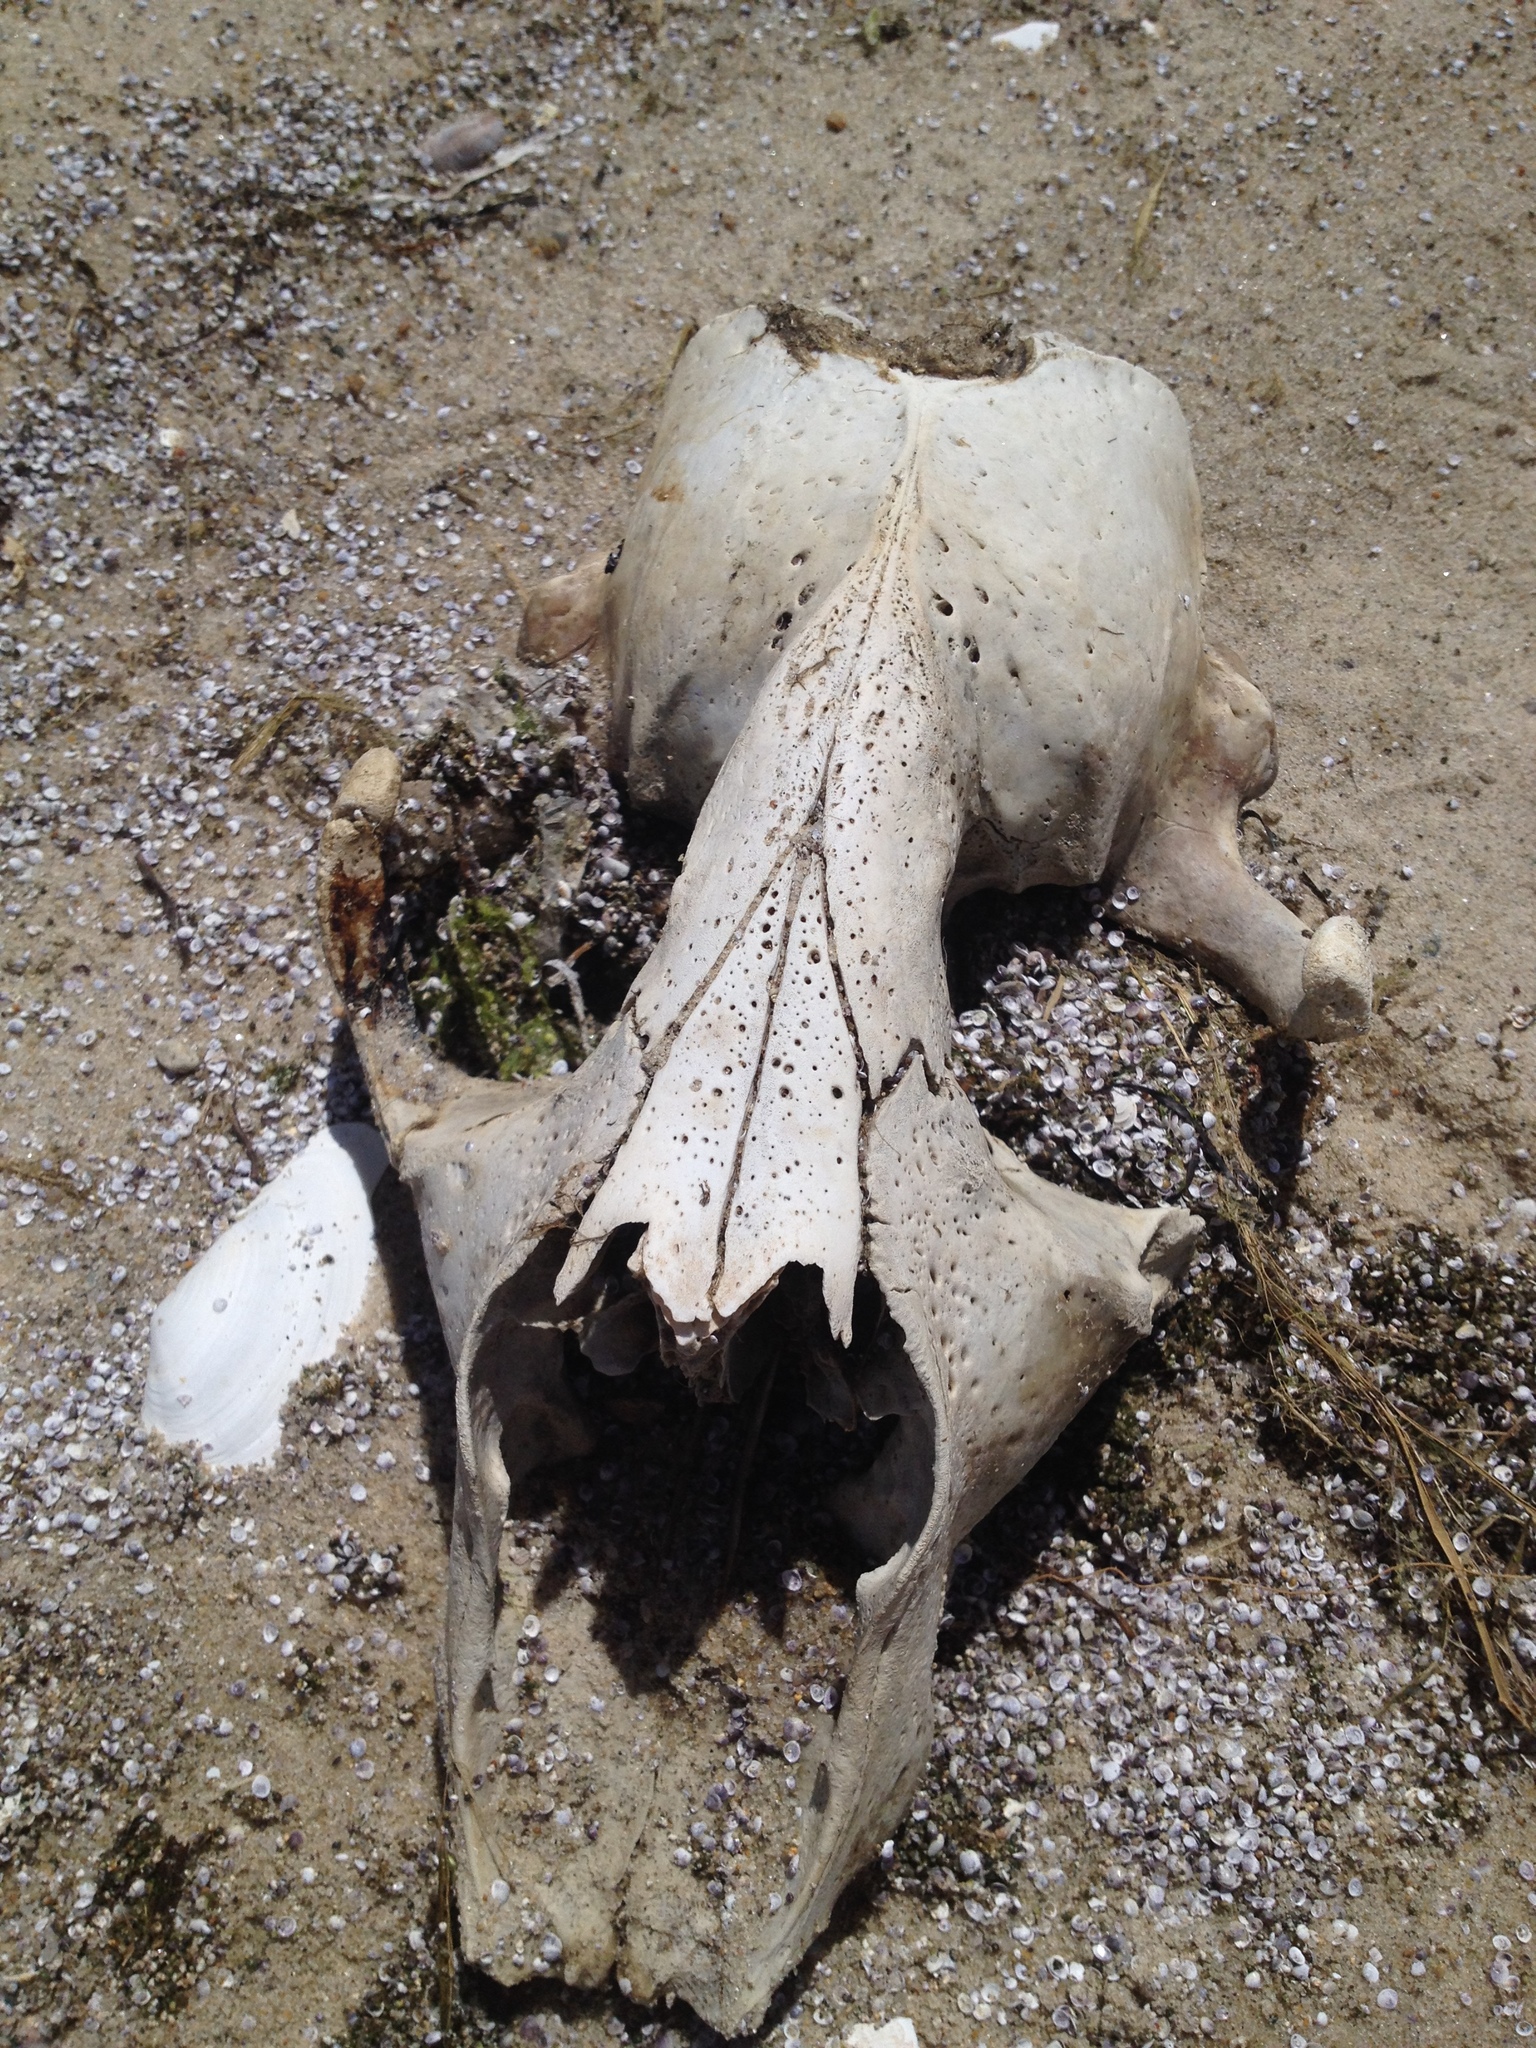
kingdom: Animalia
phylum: Chordata
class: Mammalia
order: Carnivora
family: Phocidae
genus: Halichoerus
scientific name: Halichoerus grypus
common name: Grey seal
